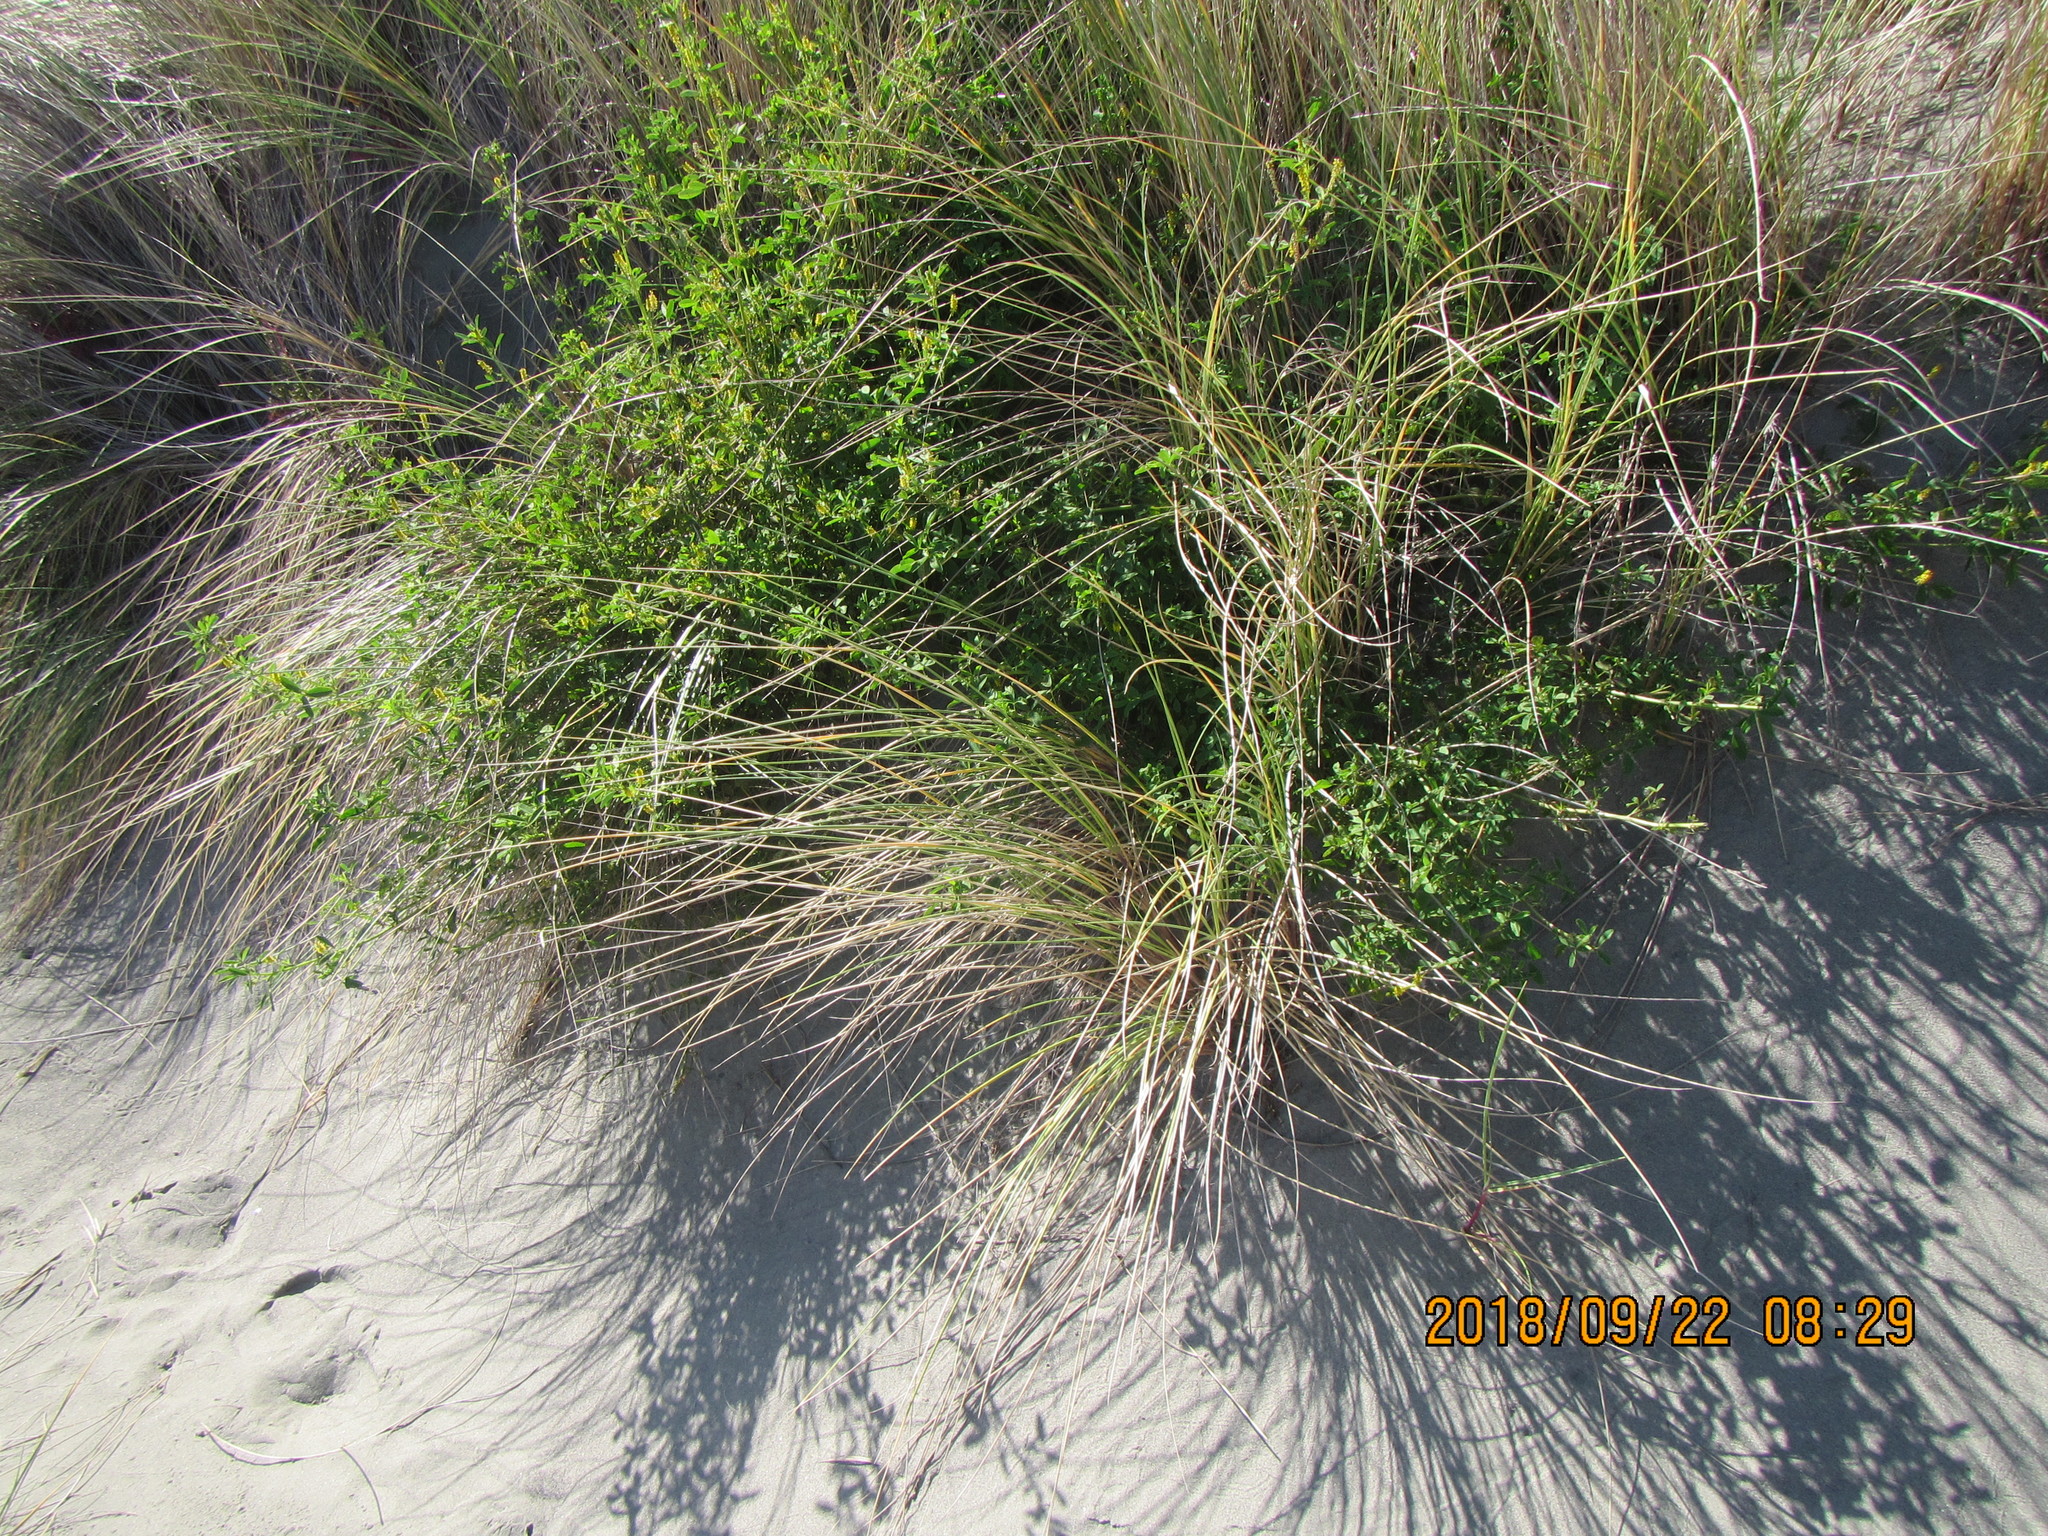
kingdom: Plantae
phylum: Tracheophyta
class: Magnoliopsida
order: Fabales
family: Fabaceae
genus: Melilotus
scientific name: Melilotus indicus
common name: Small melilot
